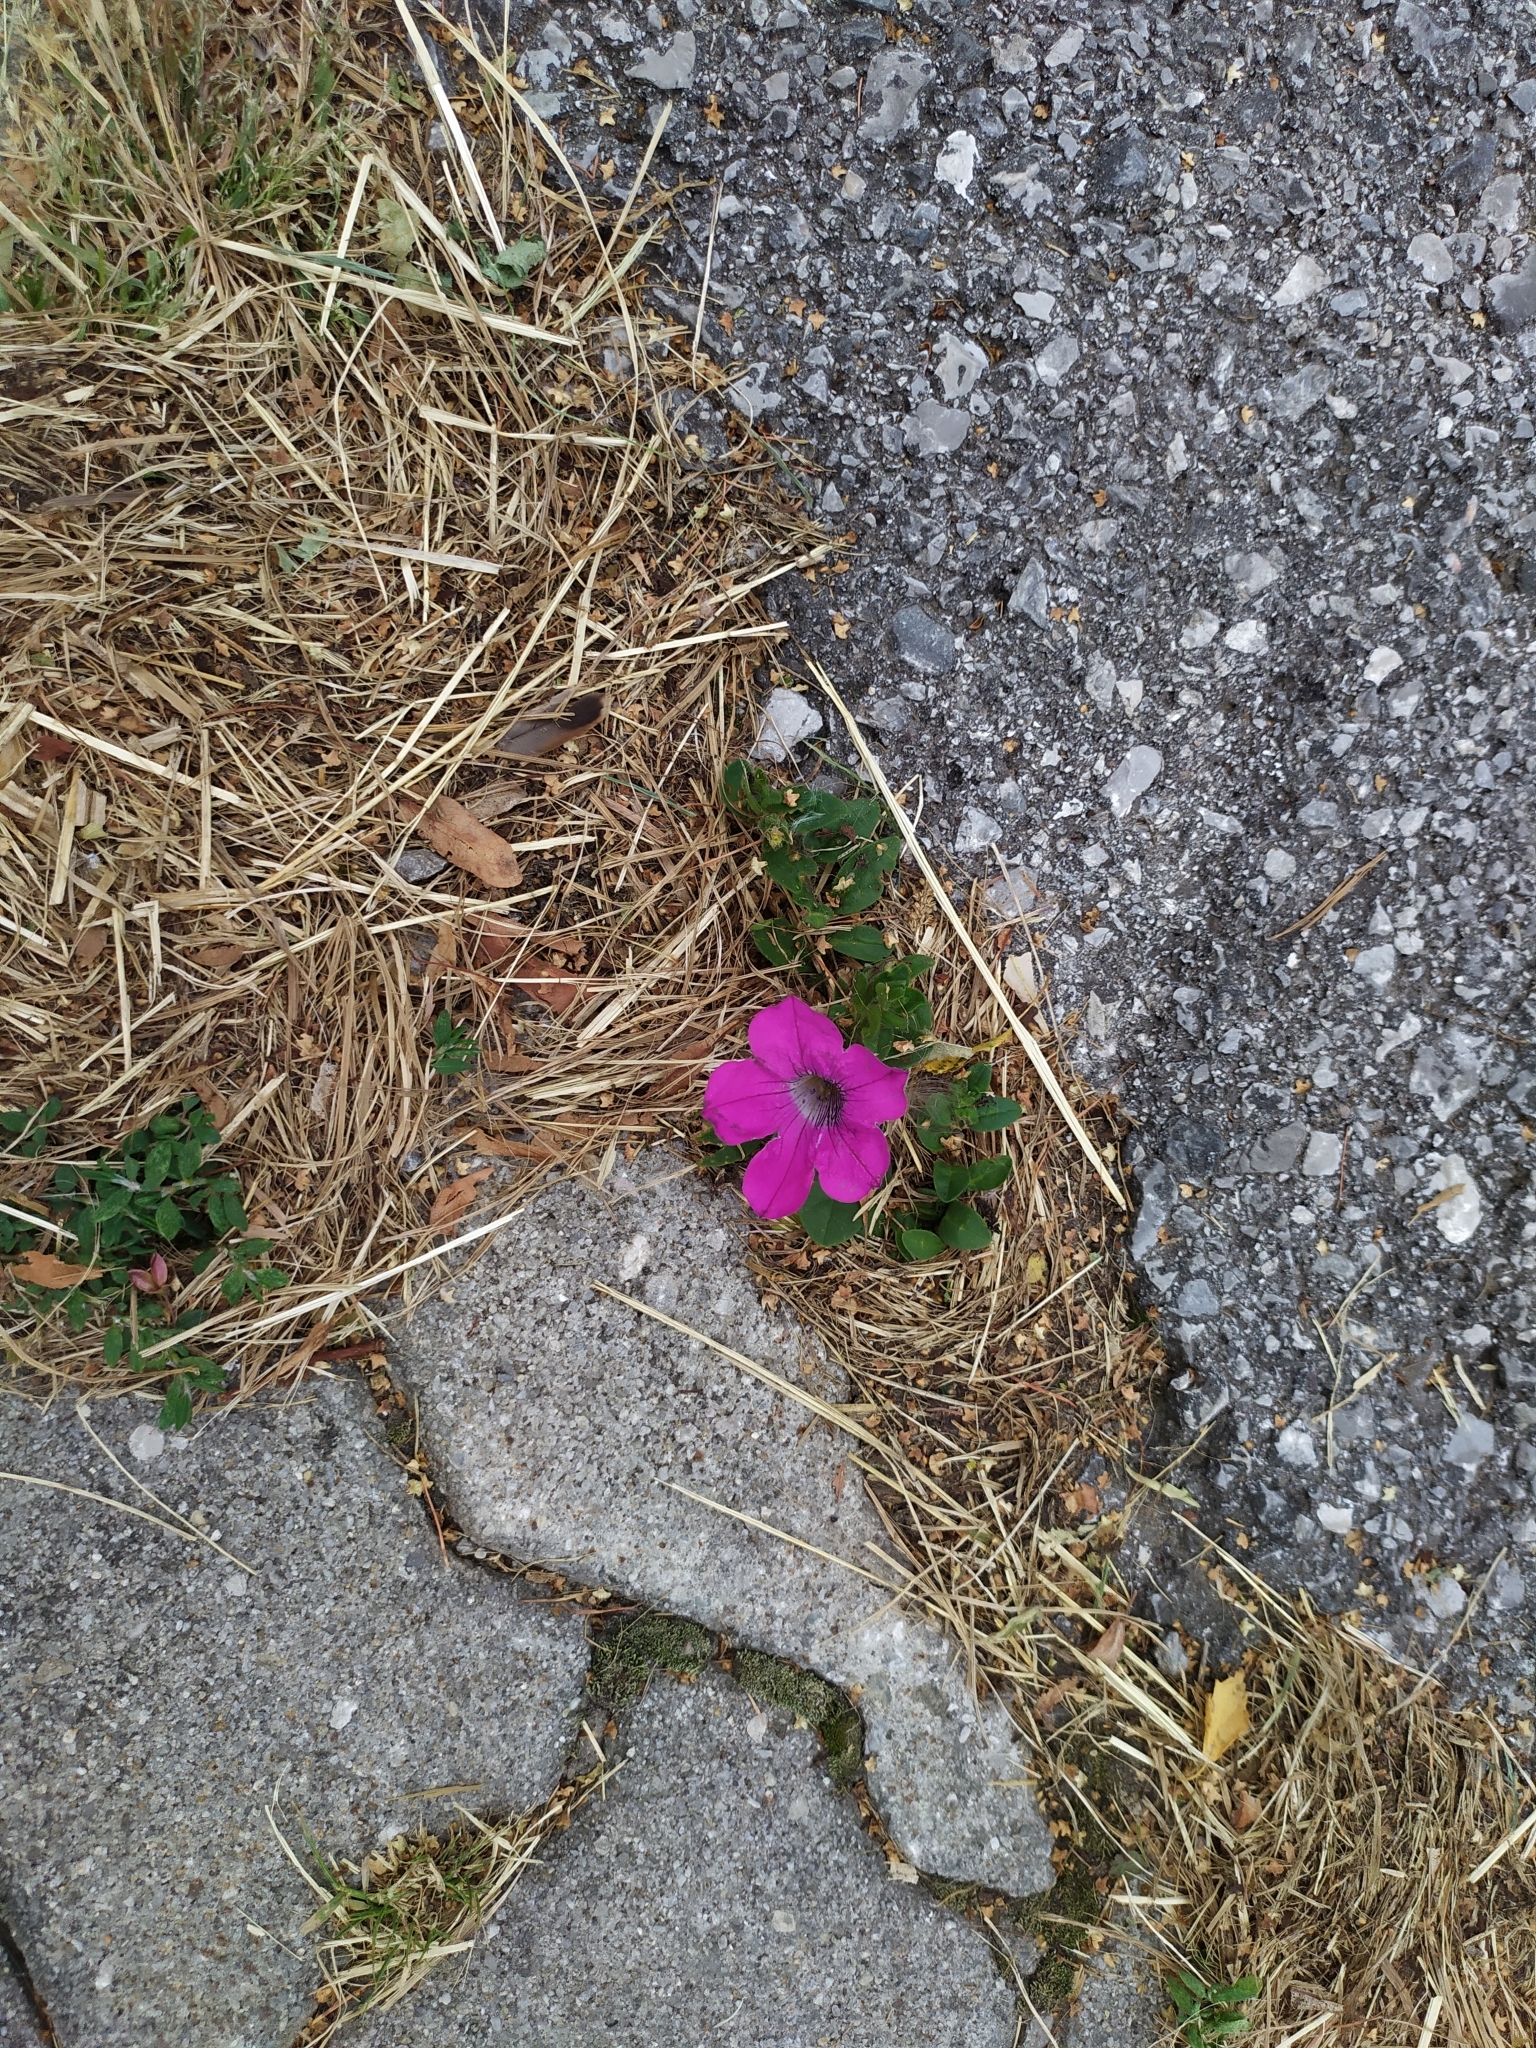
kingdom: Plantae
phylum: Tracheophyta
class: Magnoliopsida
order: Solanales
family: Solanaceae
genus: Petunia
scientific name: Petunia atkinsiana
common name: Petunia
